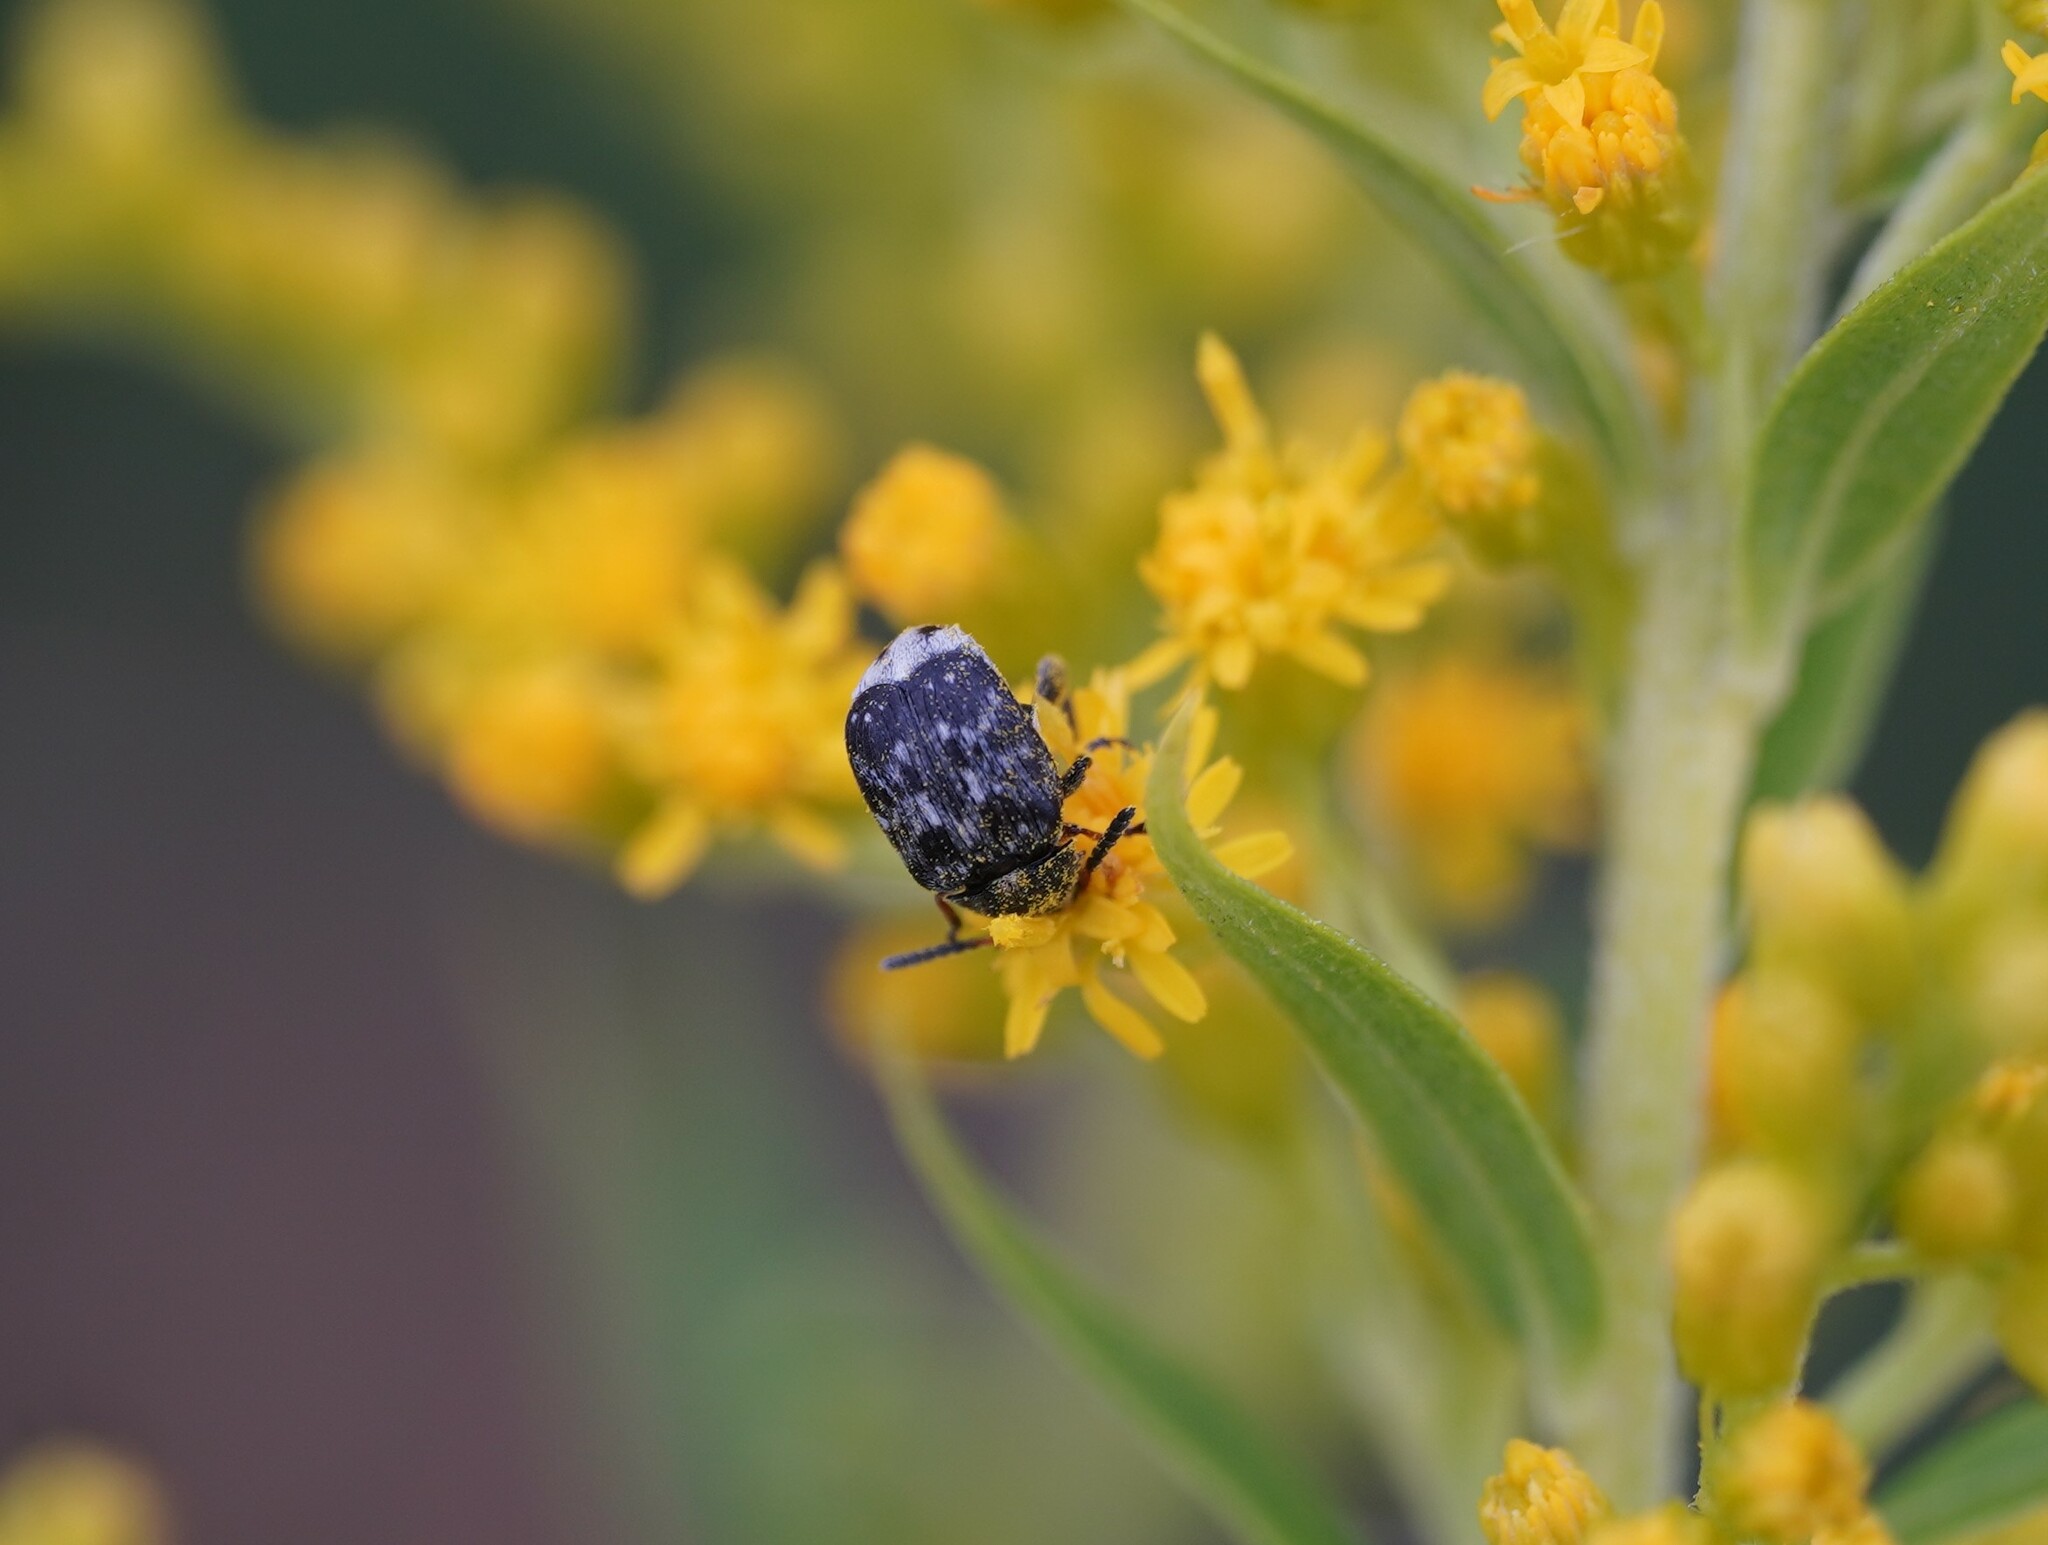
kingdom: Animalia
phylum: Arthropoda
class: Insecta
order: Coleoptera
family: Scarabaeidae
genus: Valgus
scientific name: Valgus hemipterus
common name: Bug flower chafer
